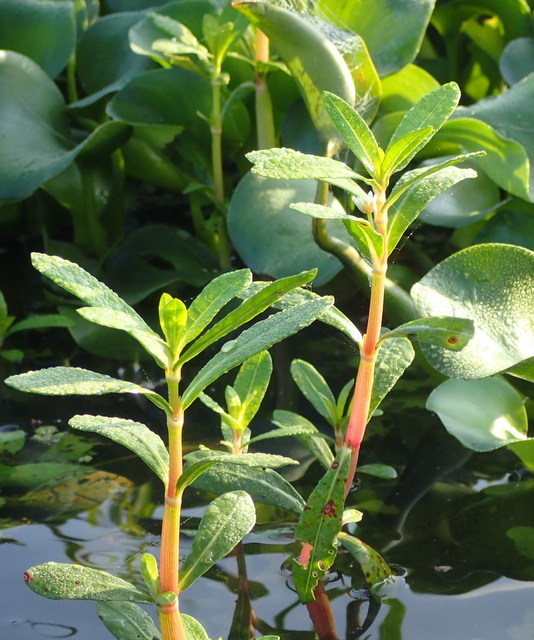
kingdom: Plantae
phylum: Tracheophyta
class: Magnoliopsida
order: Caryophyllales
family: Amaranthaceae
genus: Alternanthera
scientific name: Alternanthera philoxeroides
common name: Alligatorweed
